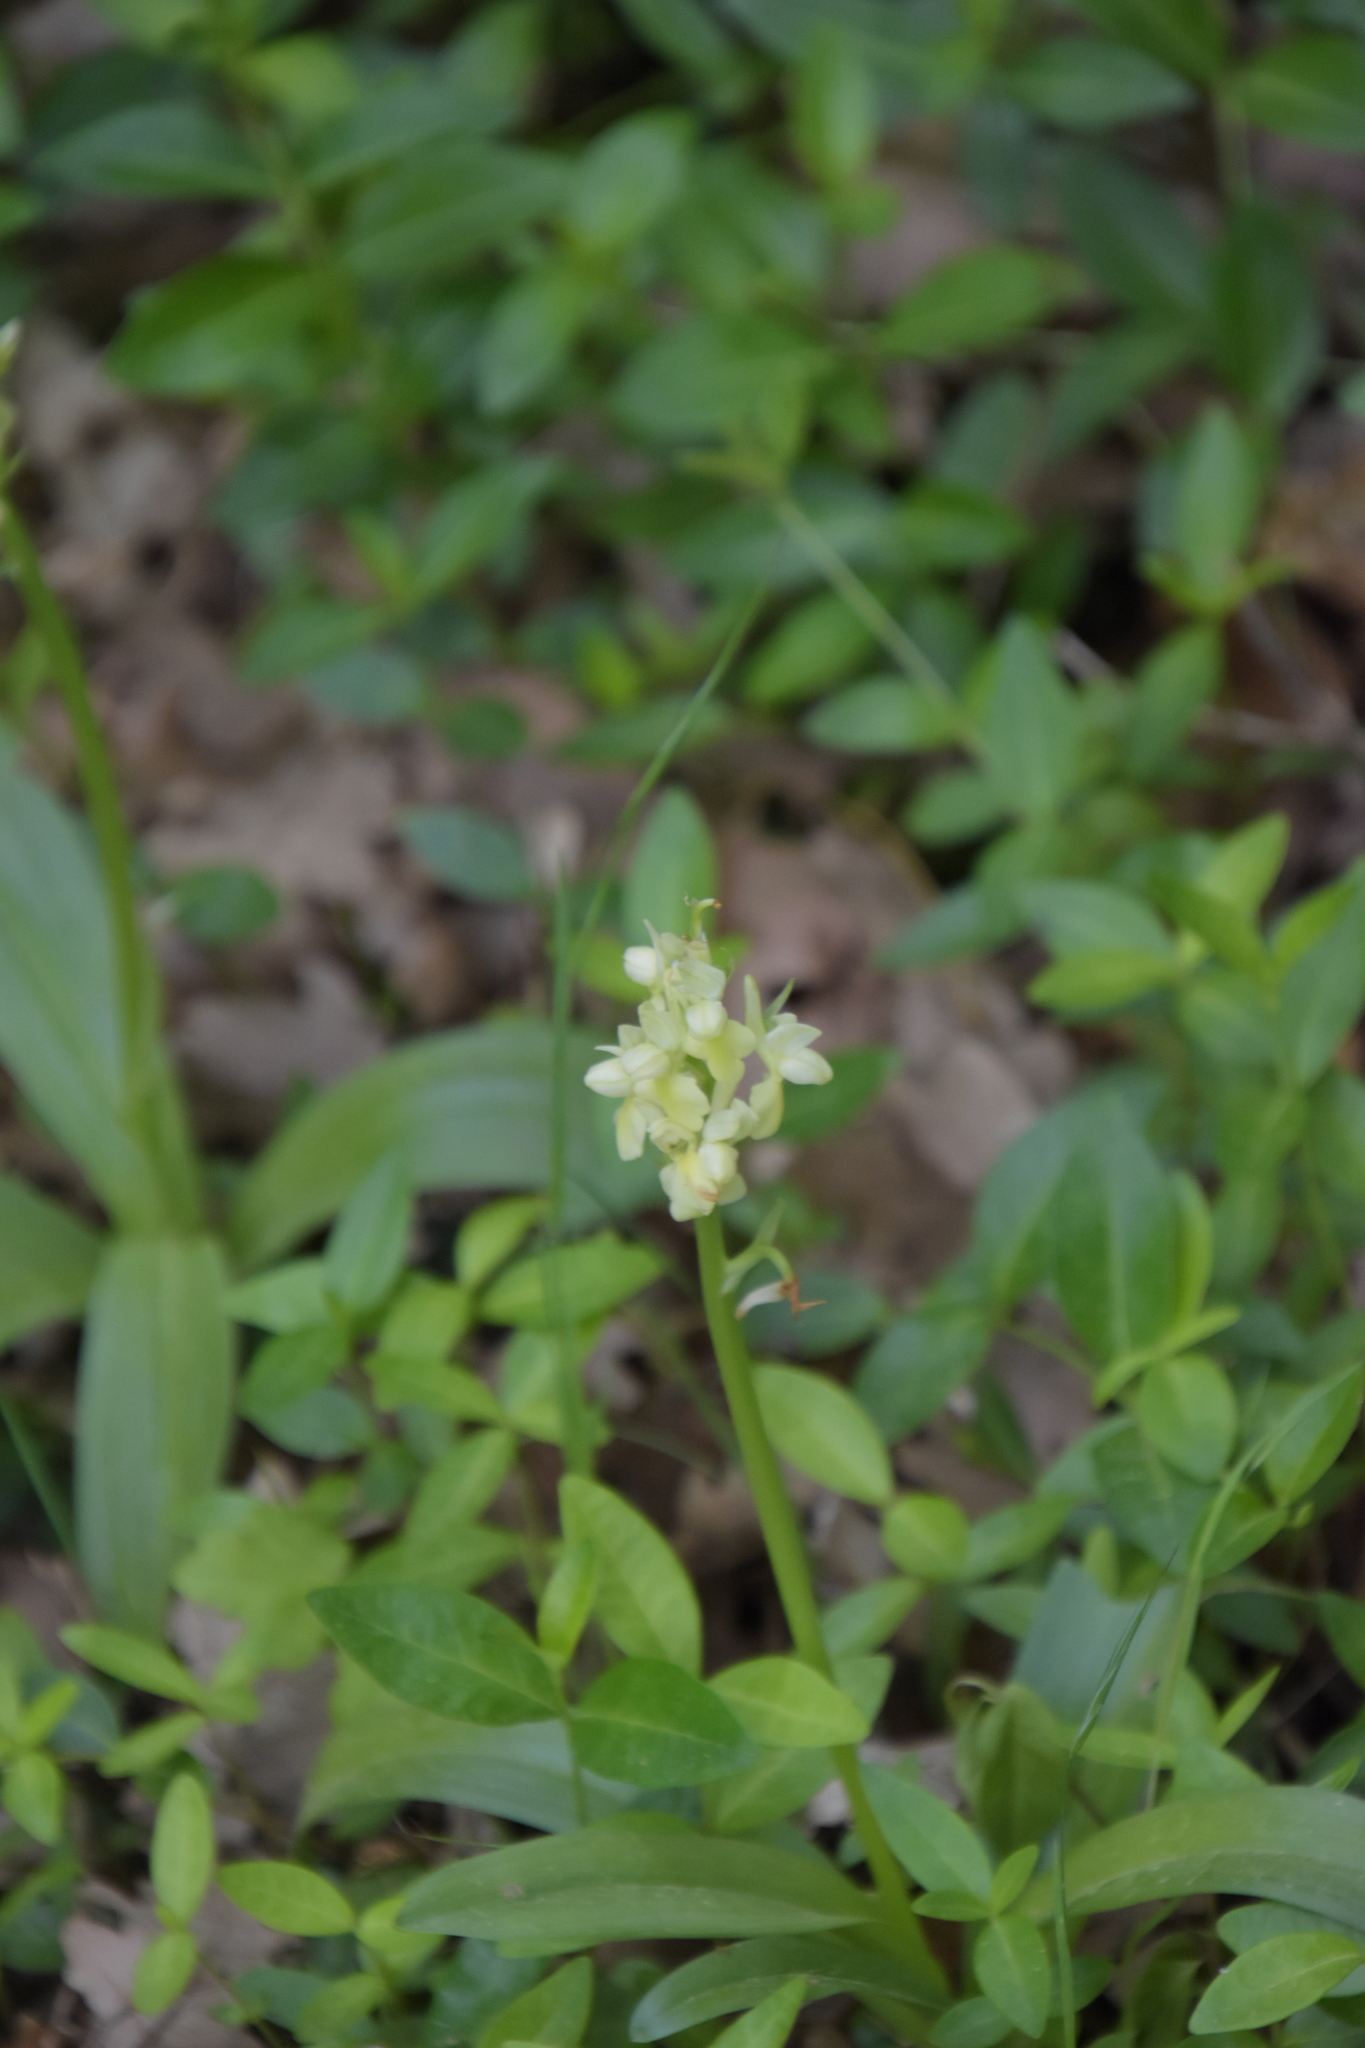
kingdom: Plantae
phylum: Tracheophyta
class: Liliopsida
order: Asparagales
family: Orchidaceae
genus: Orchis
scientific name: Orchis pallens
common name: Pale-flowered orchid
